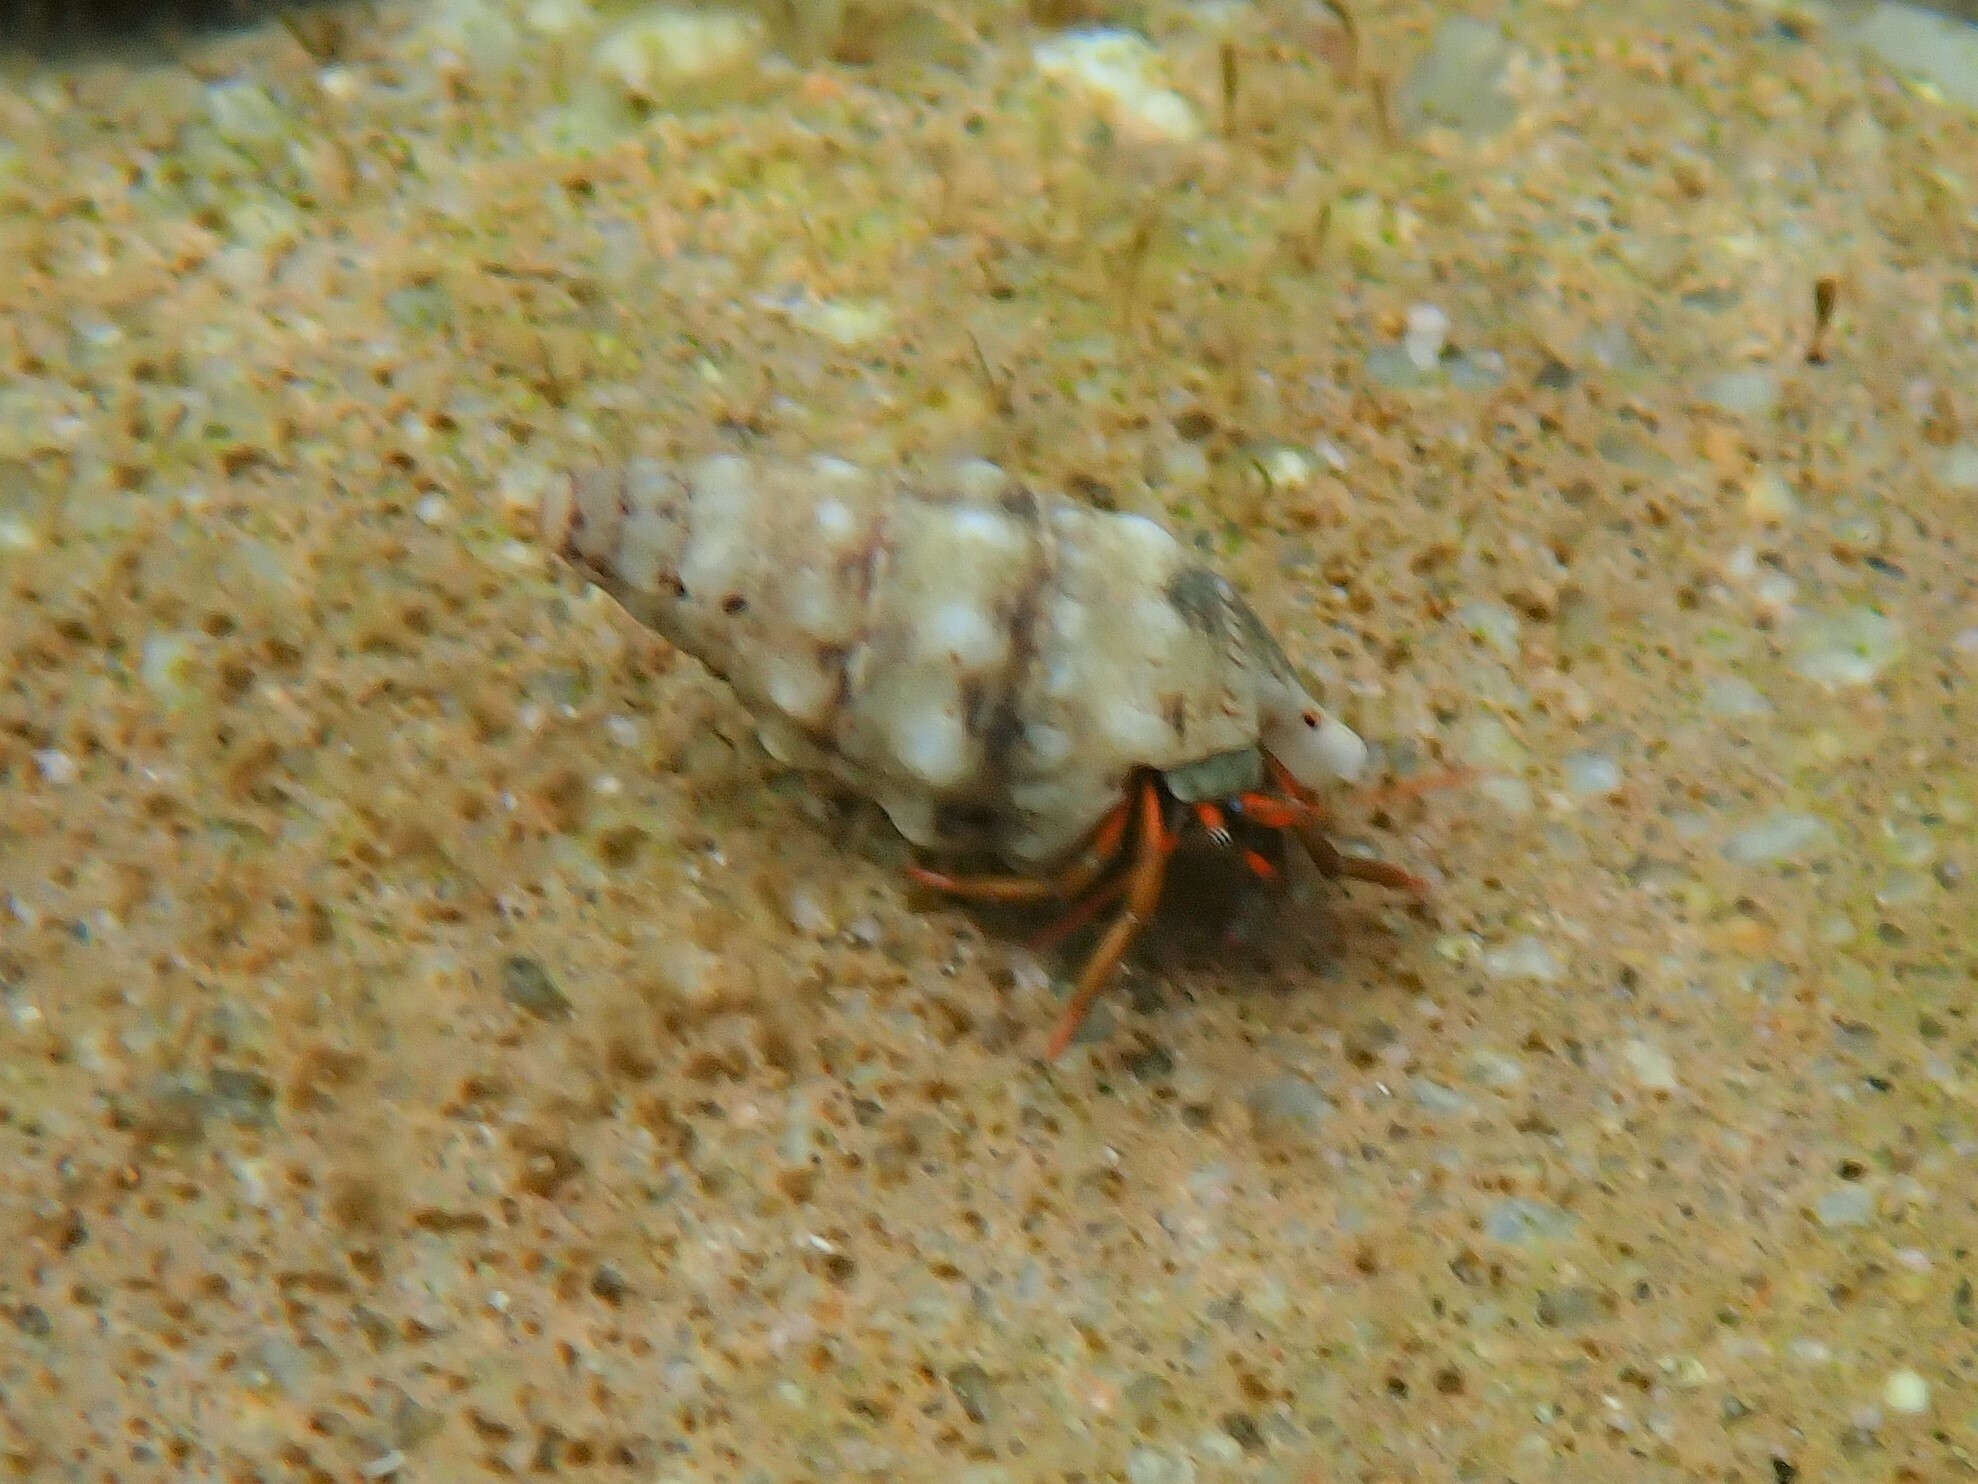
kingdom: Animalia
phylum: Arthropoda
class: Malacostraca
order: Decapoda
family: Diogenidae
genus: Clibanarius
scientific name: Clibanarius erythropus
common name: Hermit crab
